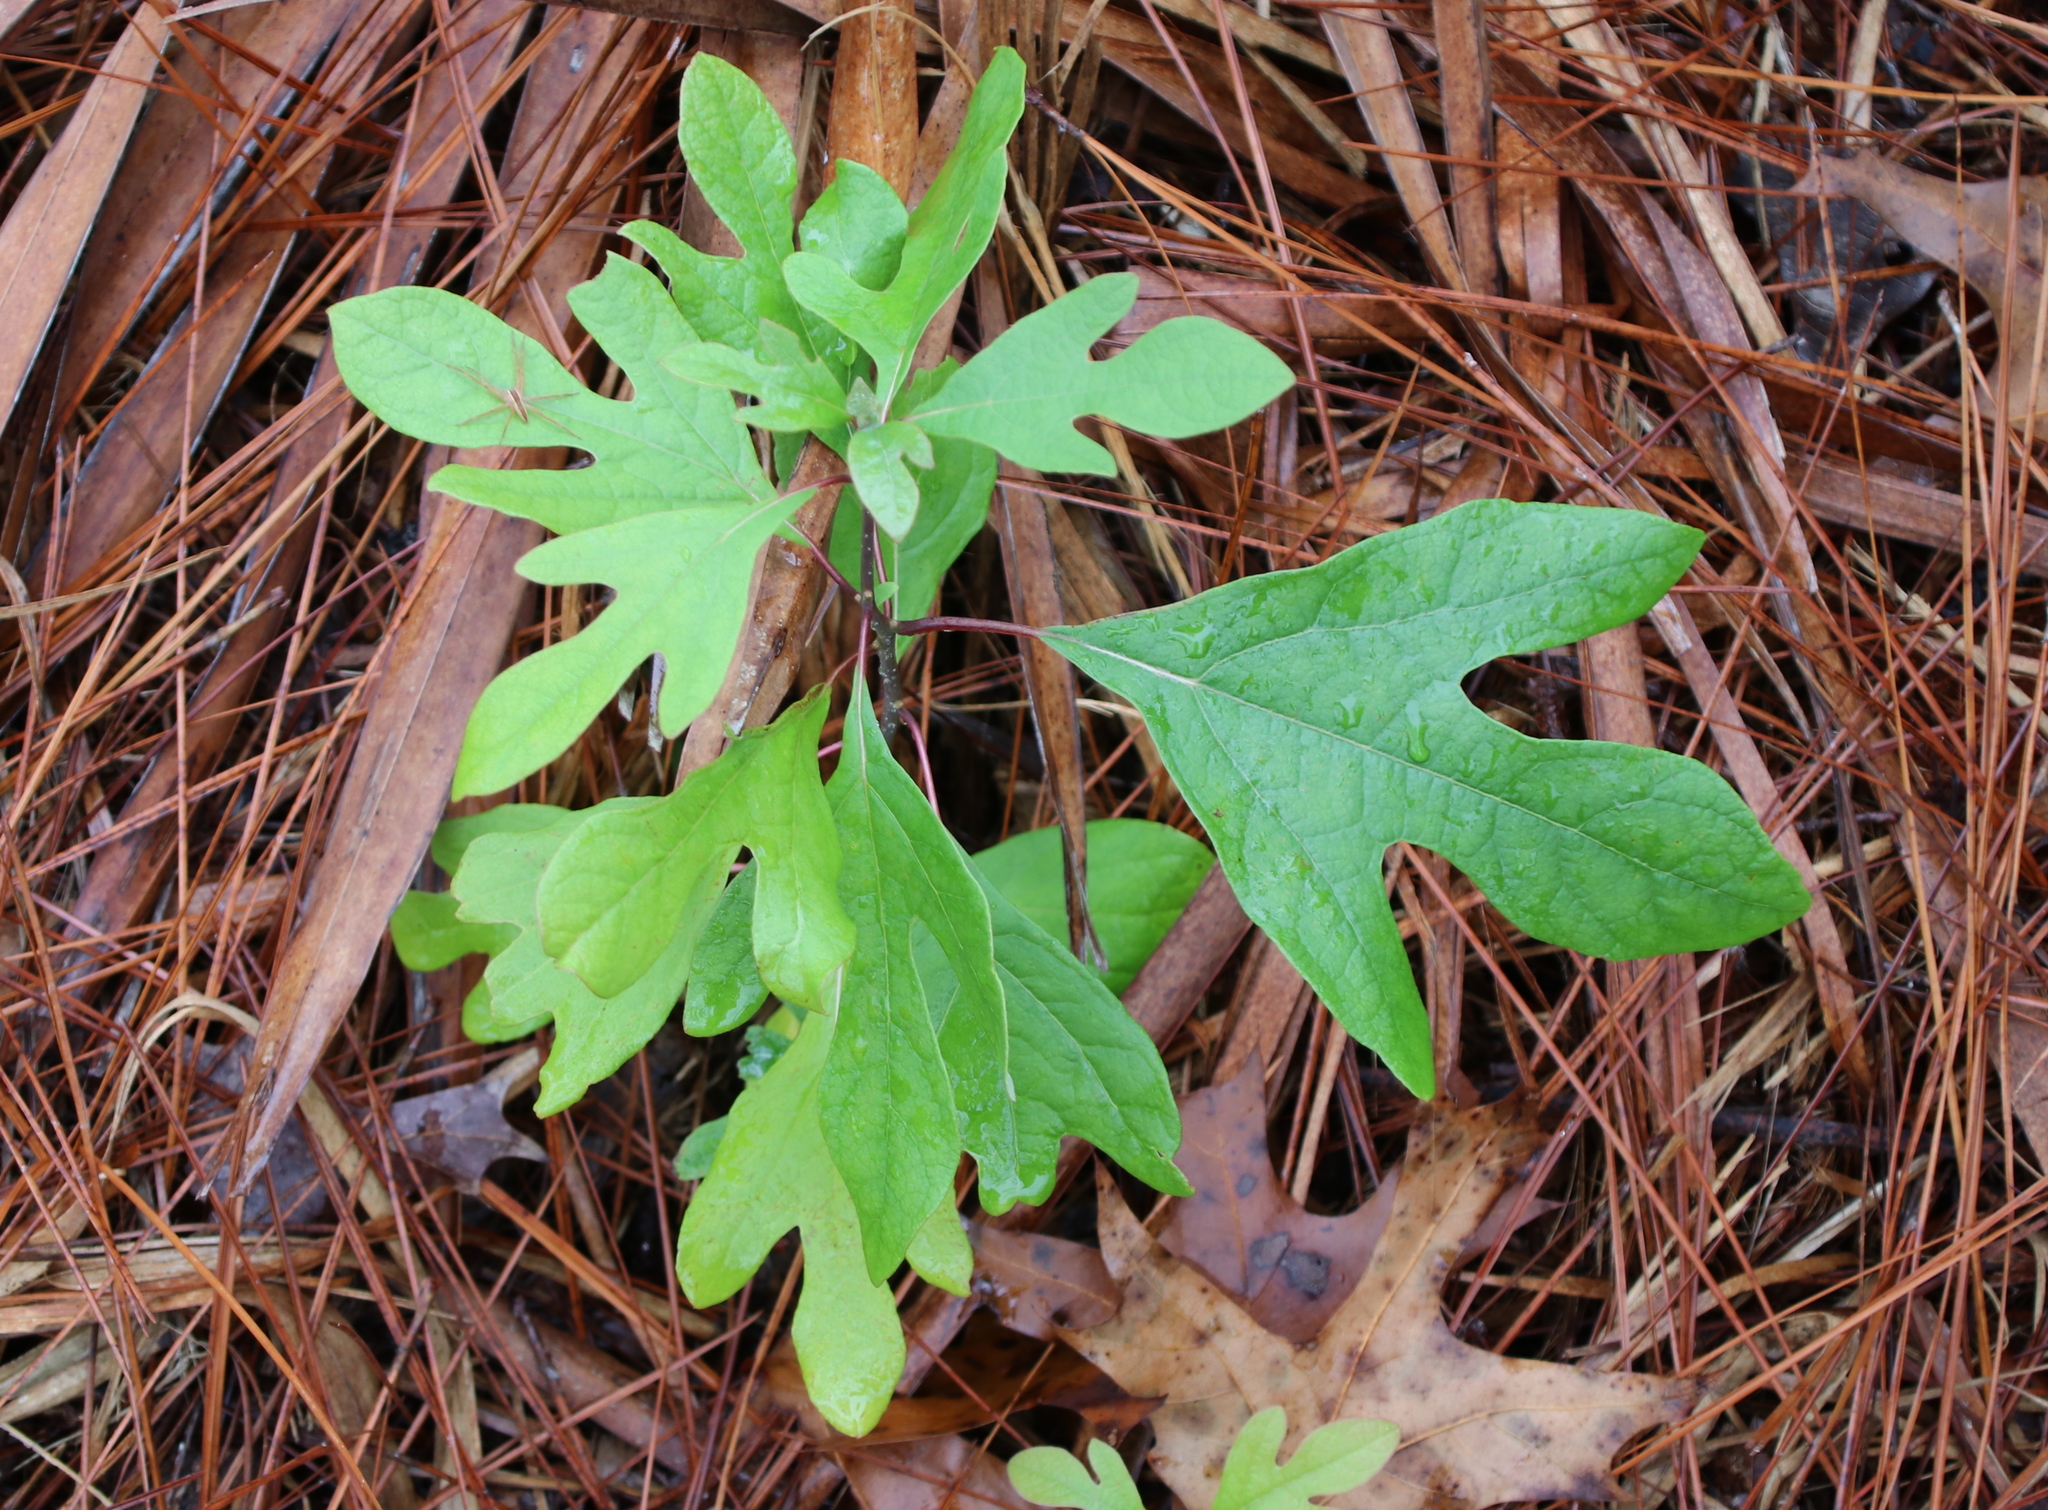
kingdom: Plantae
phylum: Tracheophyta
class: Magnoliopsida
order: Laurales
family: Lauraceae
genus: Sassafras
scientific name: Sassafras albidum
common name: Sassafras
